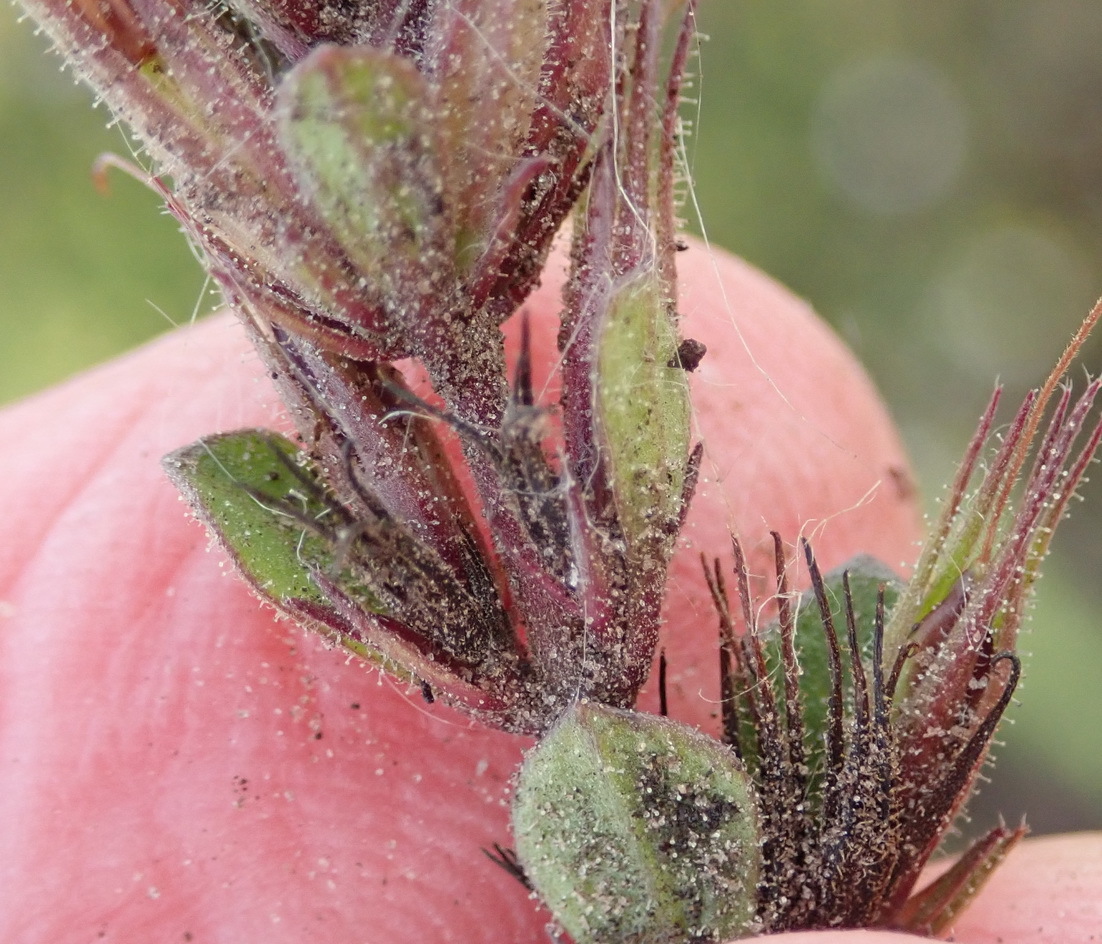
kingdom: Plantae
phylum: Tracheophyta
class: Magnoliopsida
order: Lamiales
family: Acanthaceae
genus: Dyschoriste
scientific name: Dyschoriste setigera
